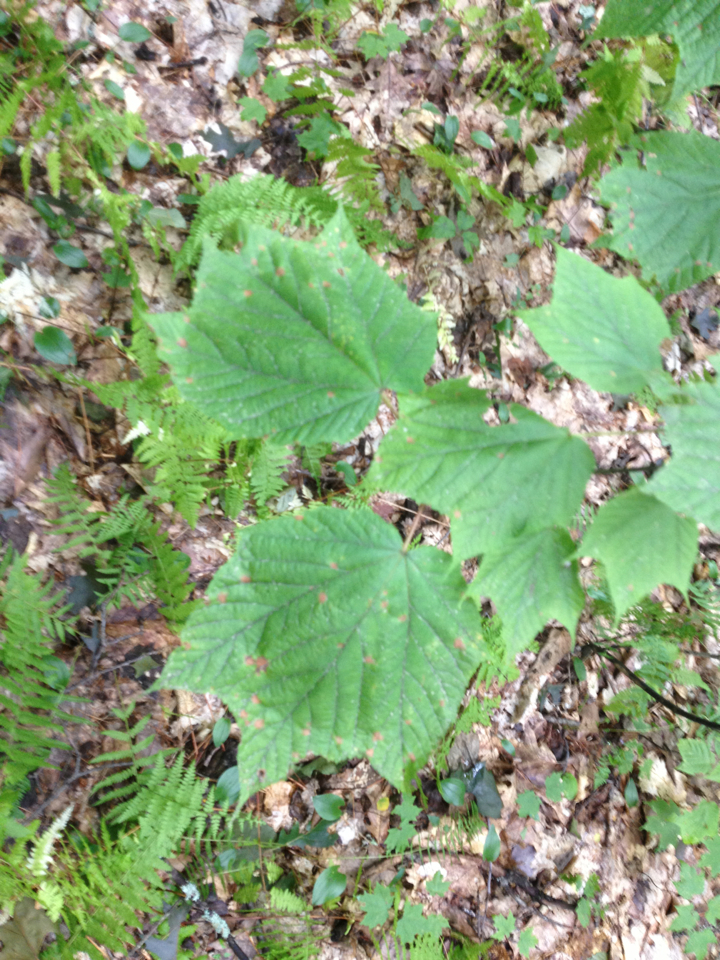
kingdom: Plantae
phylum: Tracheophyta
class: Magnoliopsida
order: Sapindales
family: Sapindaceae
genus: Acer
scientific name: Acer pensylvanicum
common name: Moosewood
